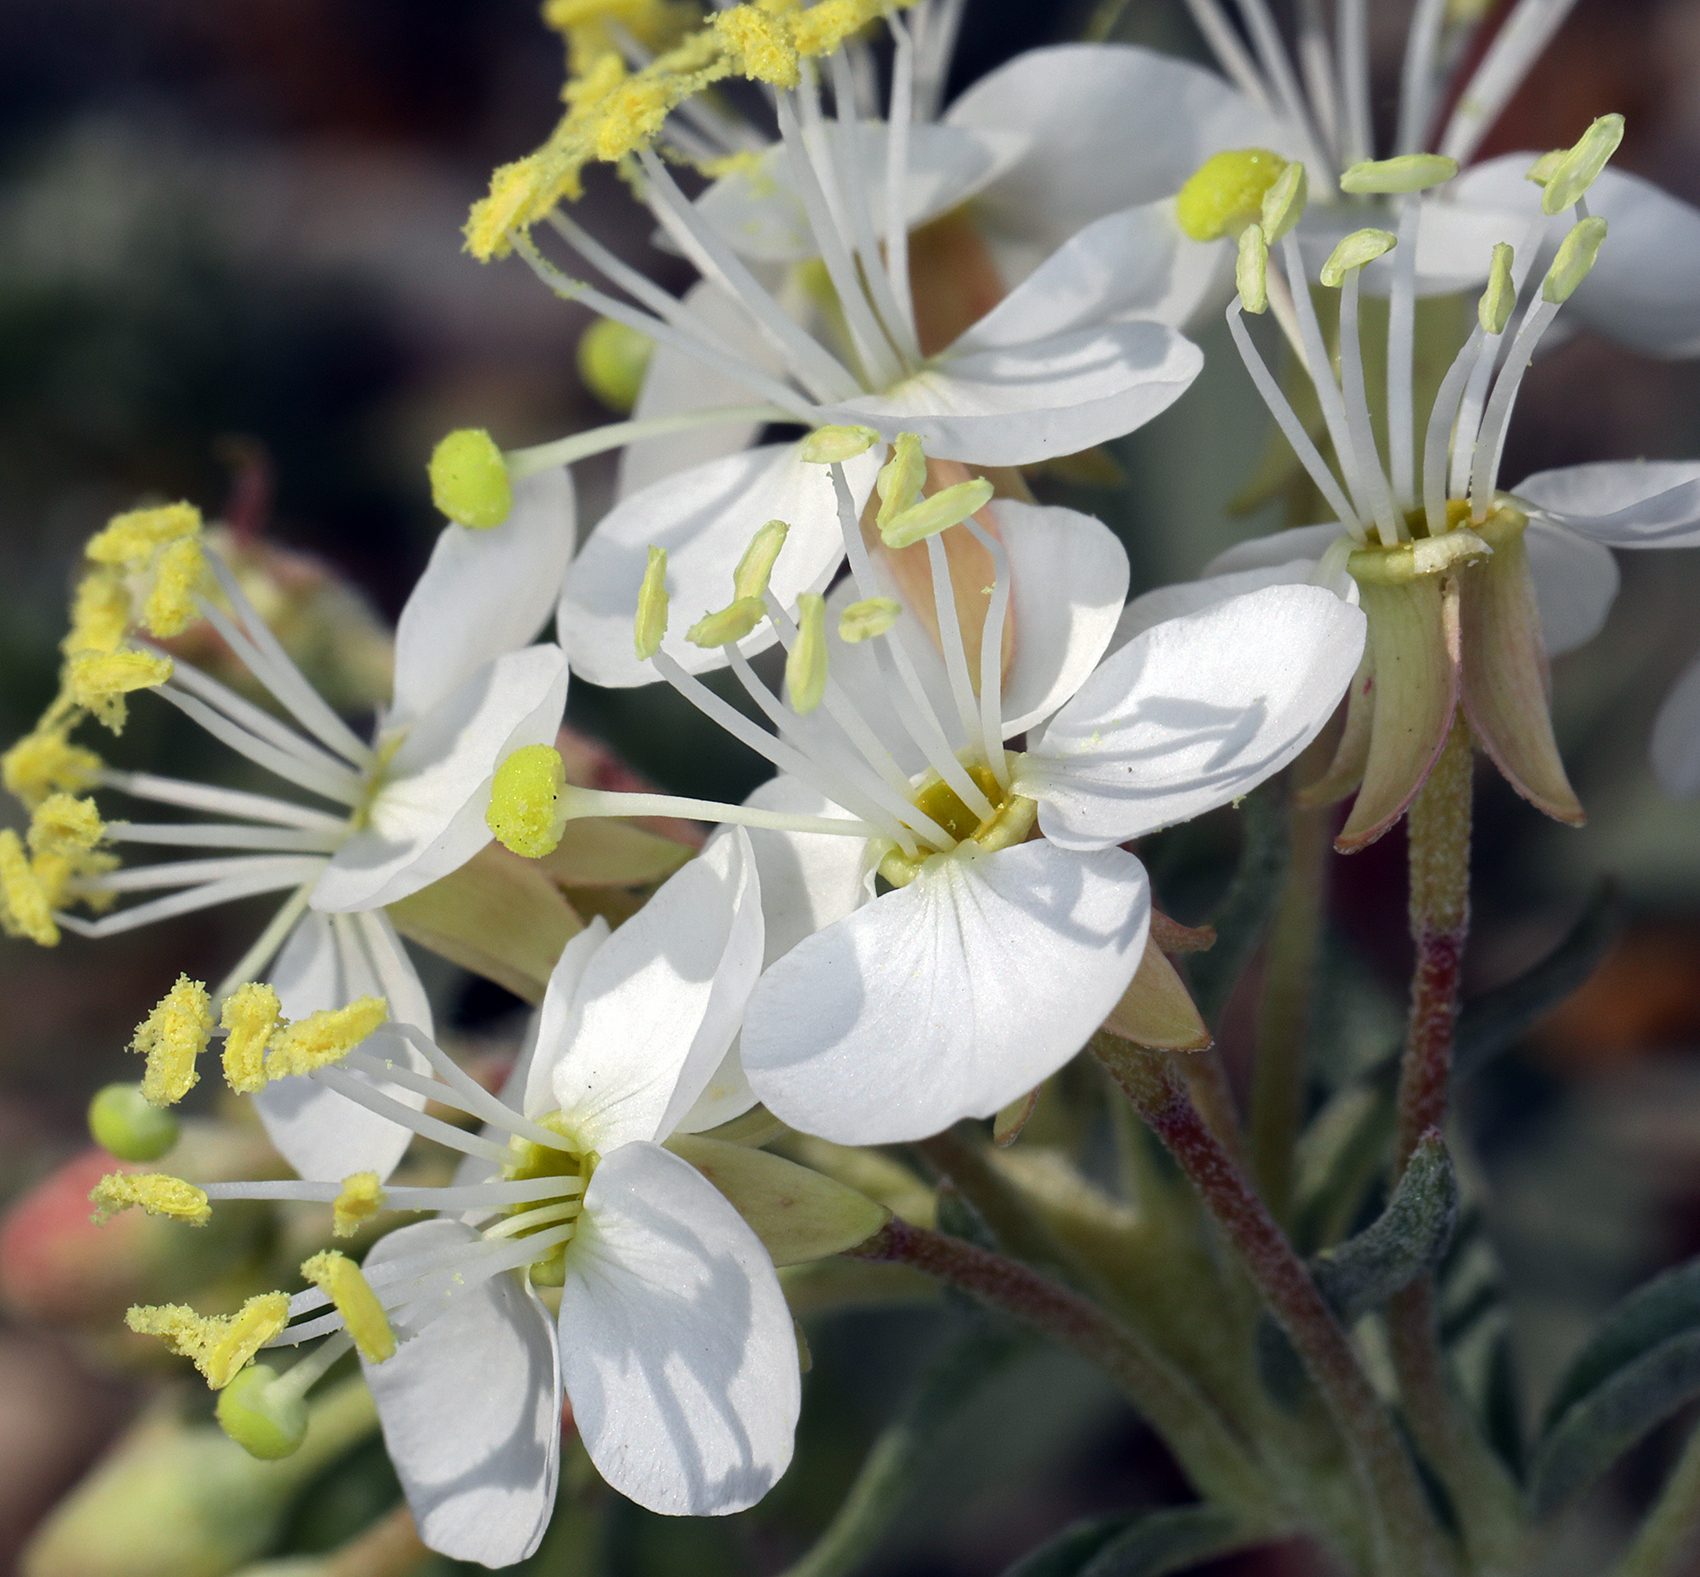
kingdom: Plantae
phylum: Tracheophyta
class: Magnoliopsida
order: Myrtales
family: Onagraceae
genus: Eremothera
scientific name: Eremothera boothii
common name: Booth's evening primrose
